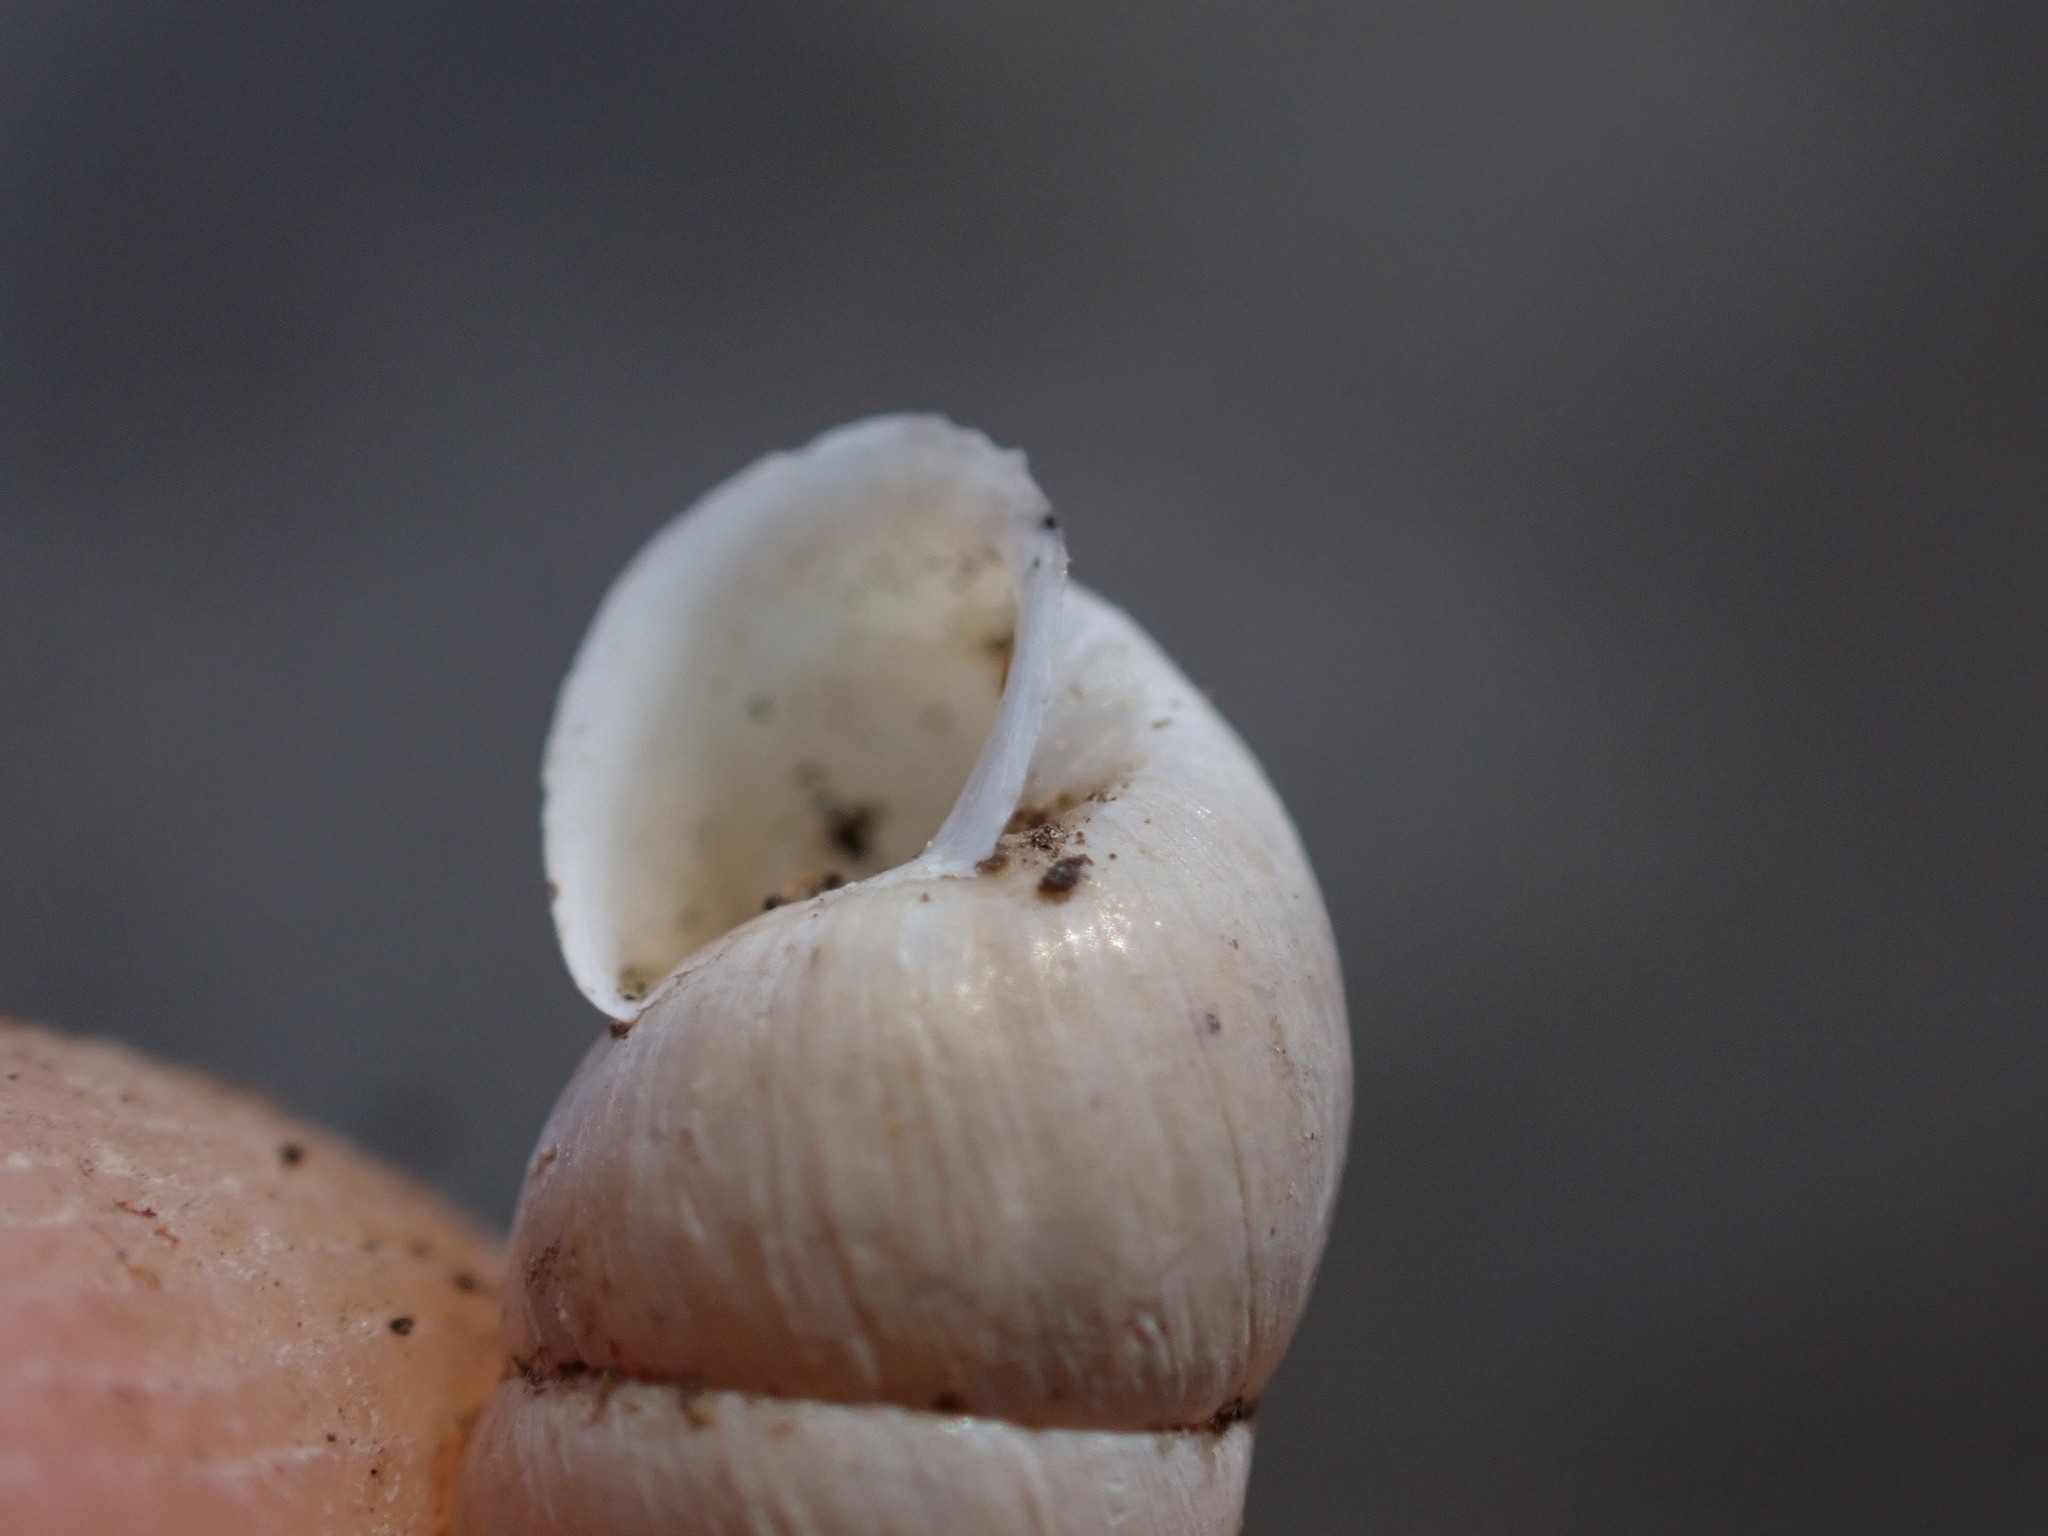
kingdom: Animalia
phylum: Mollusca
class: Gastropoda
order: Stylommatophora
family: Enidae
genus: Merdigera
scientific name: Merdigera obscura
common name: Lesser bulin
